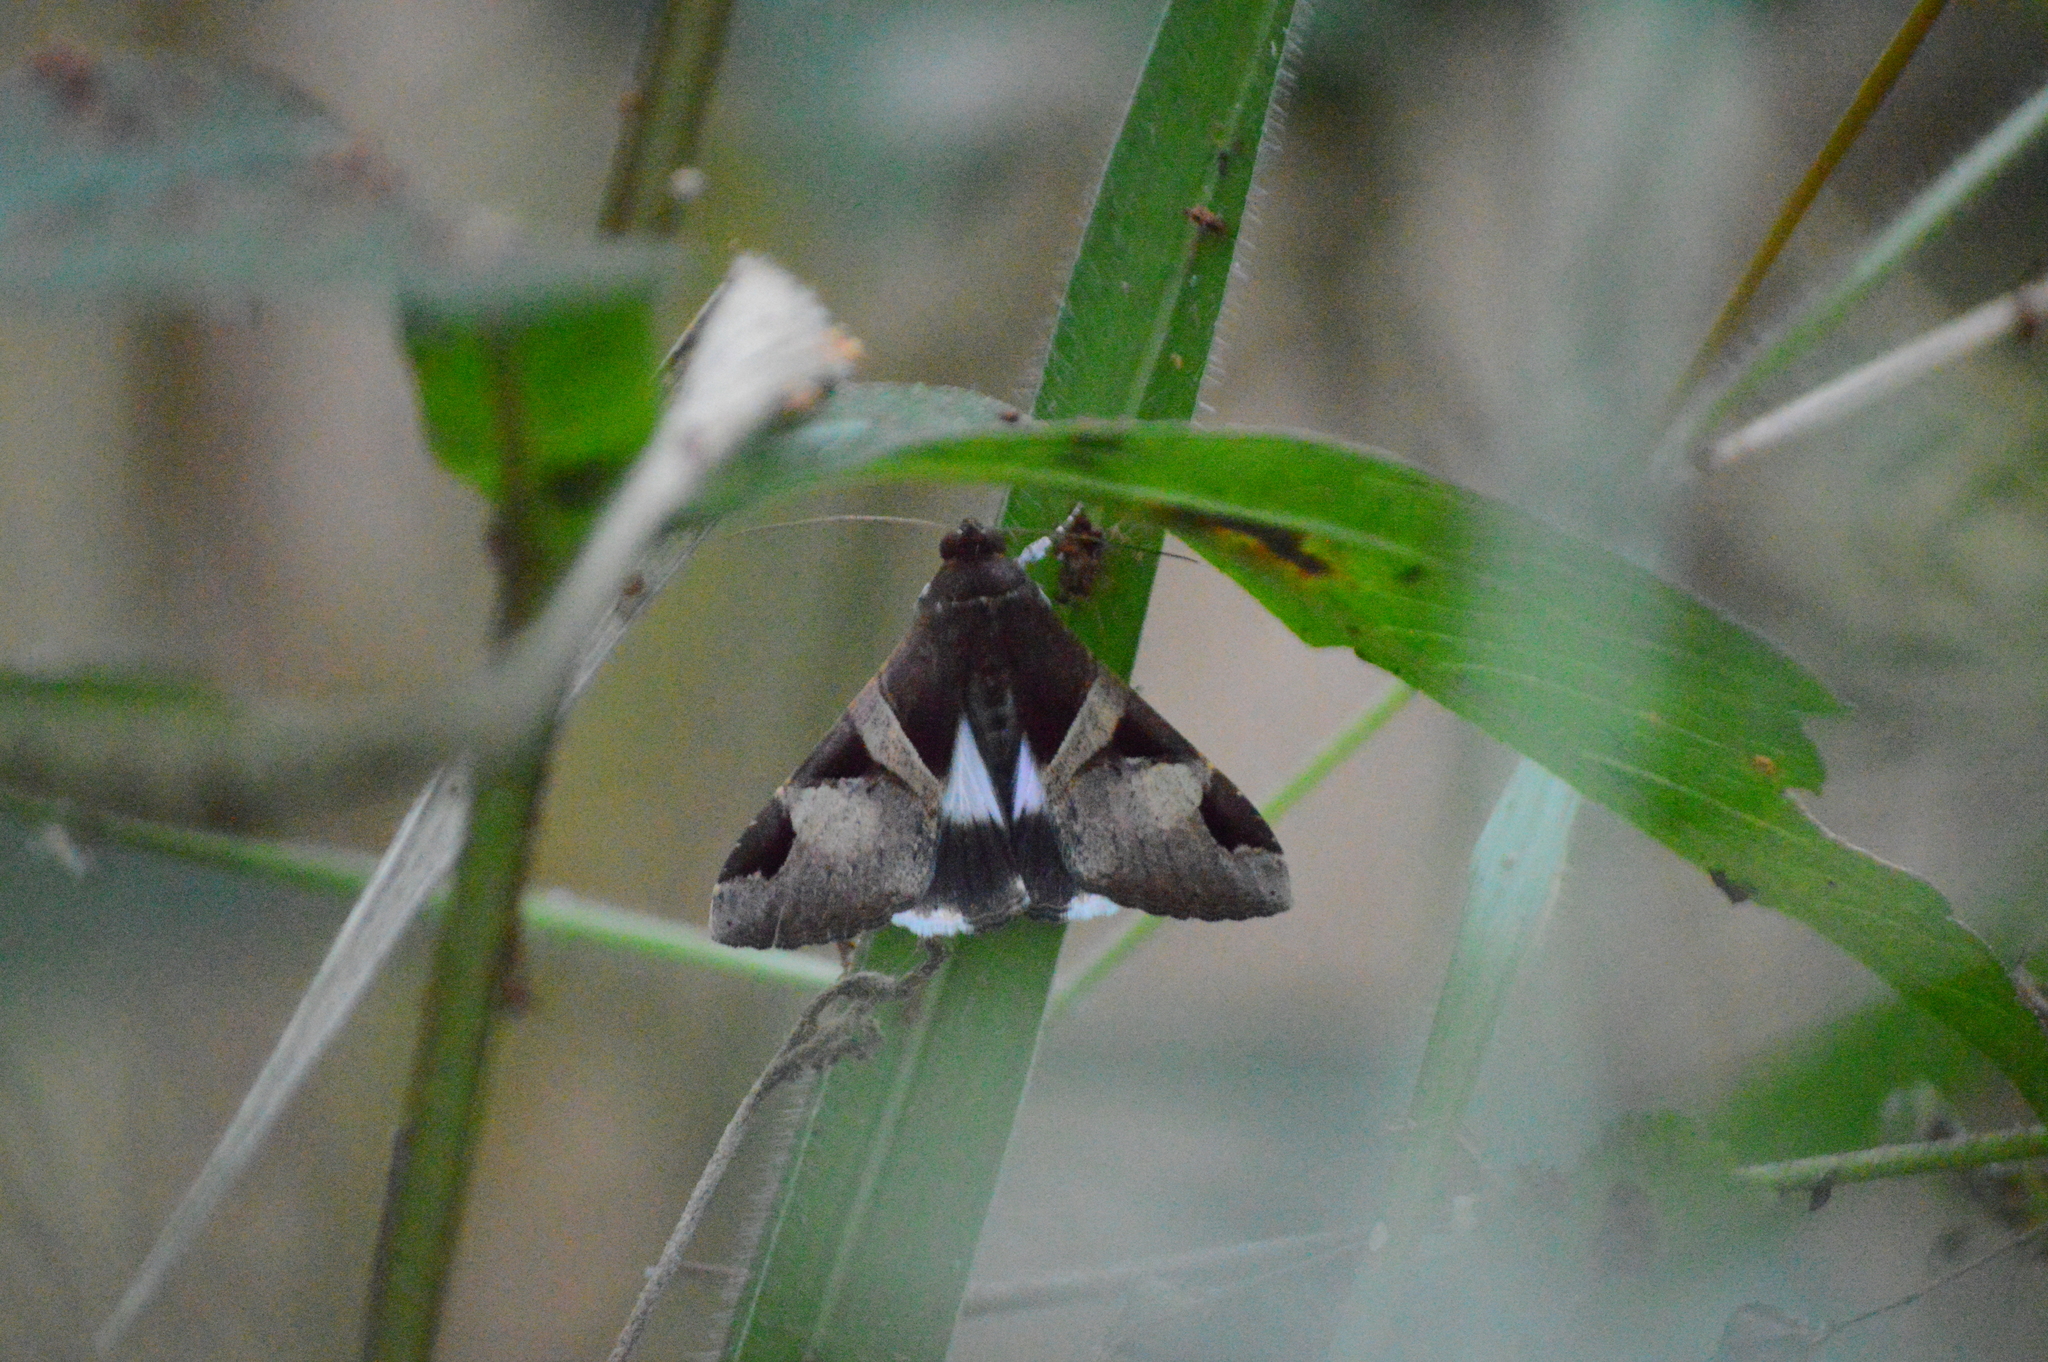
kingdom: Animalia
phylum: Arthropoda
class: Insecta
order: Lepidoptera
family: Erebidae
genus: Melipotis
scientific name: Melipotis fasciolaris
